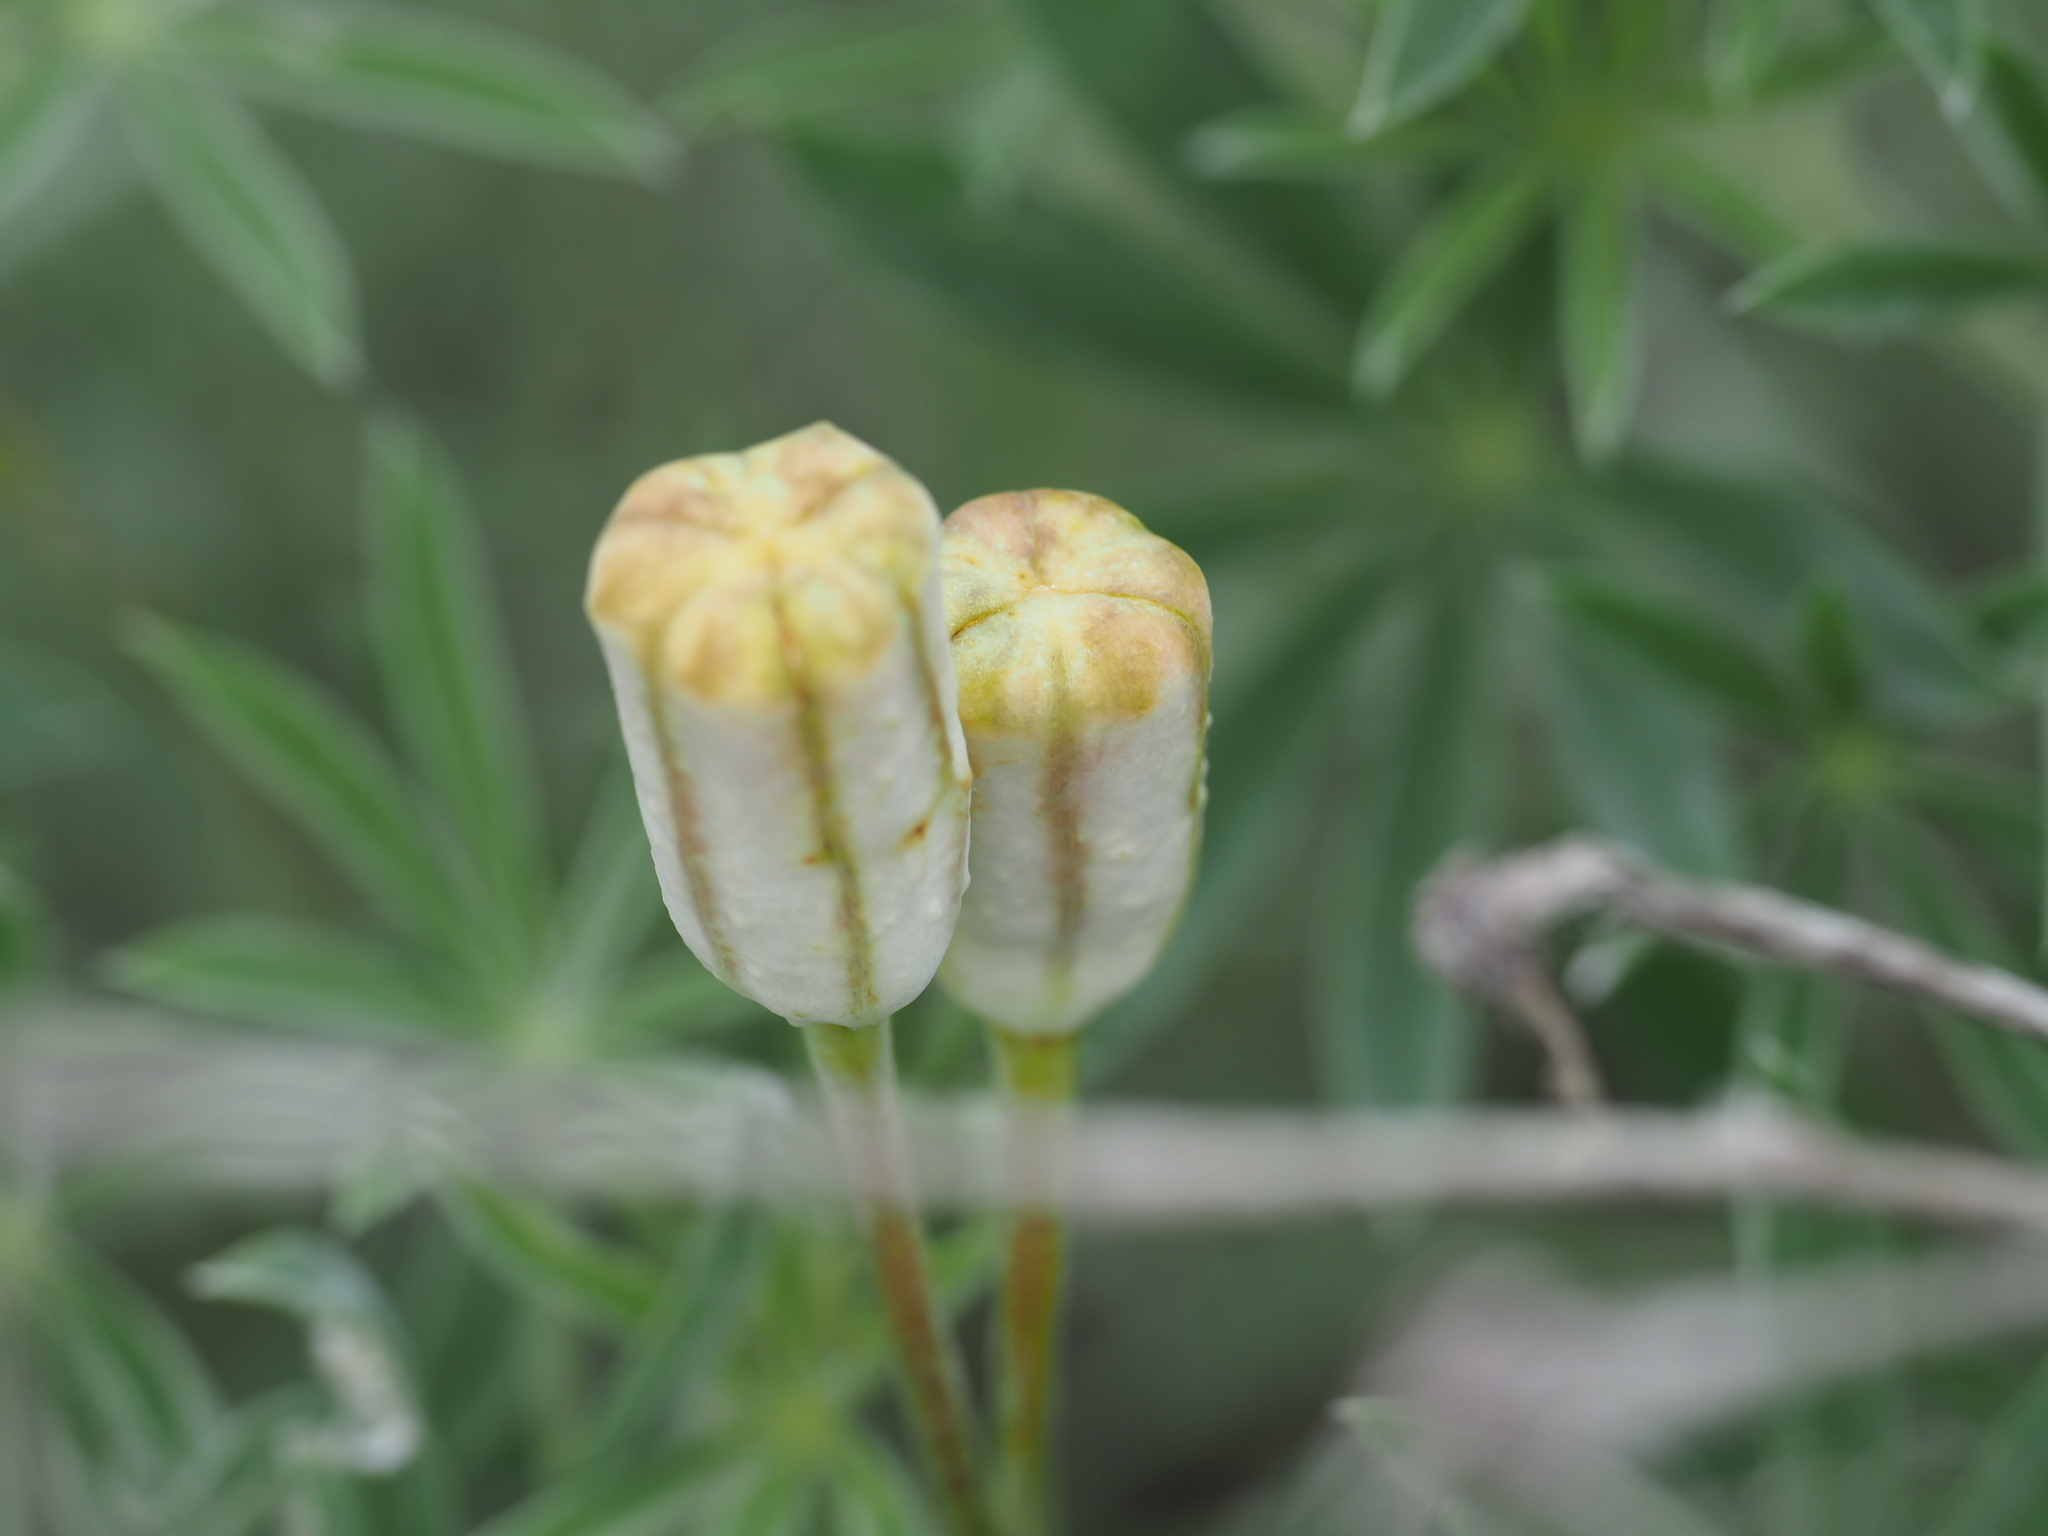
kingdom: Plantae
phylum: Tracheophyta
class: Liliopsida
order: Liliales
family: Liliaceae
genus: Fritillaria
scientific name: Fritillaria pudica
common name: Yellow fritillary
